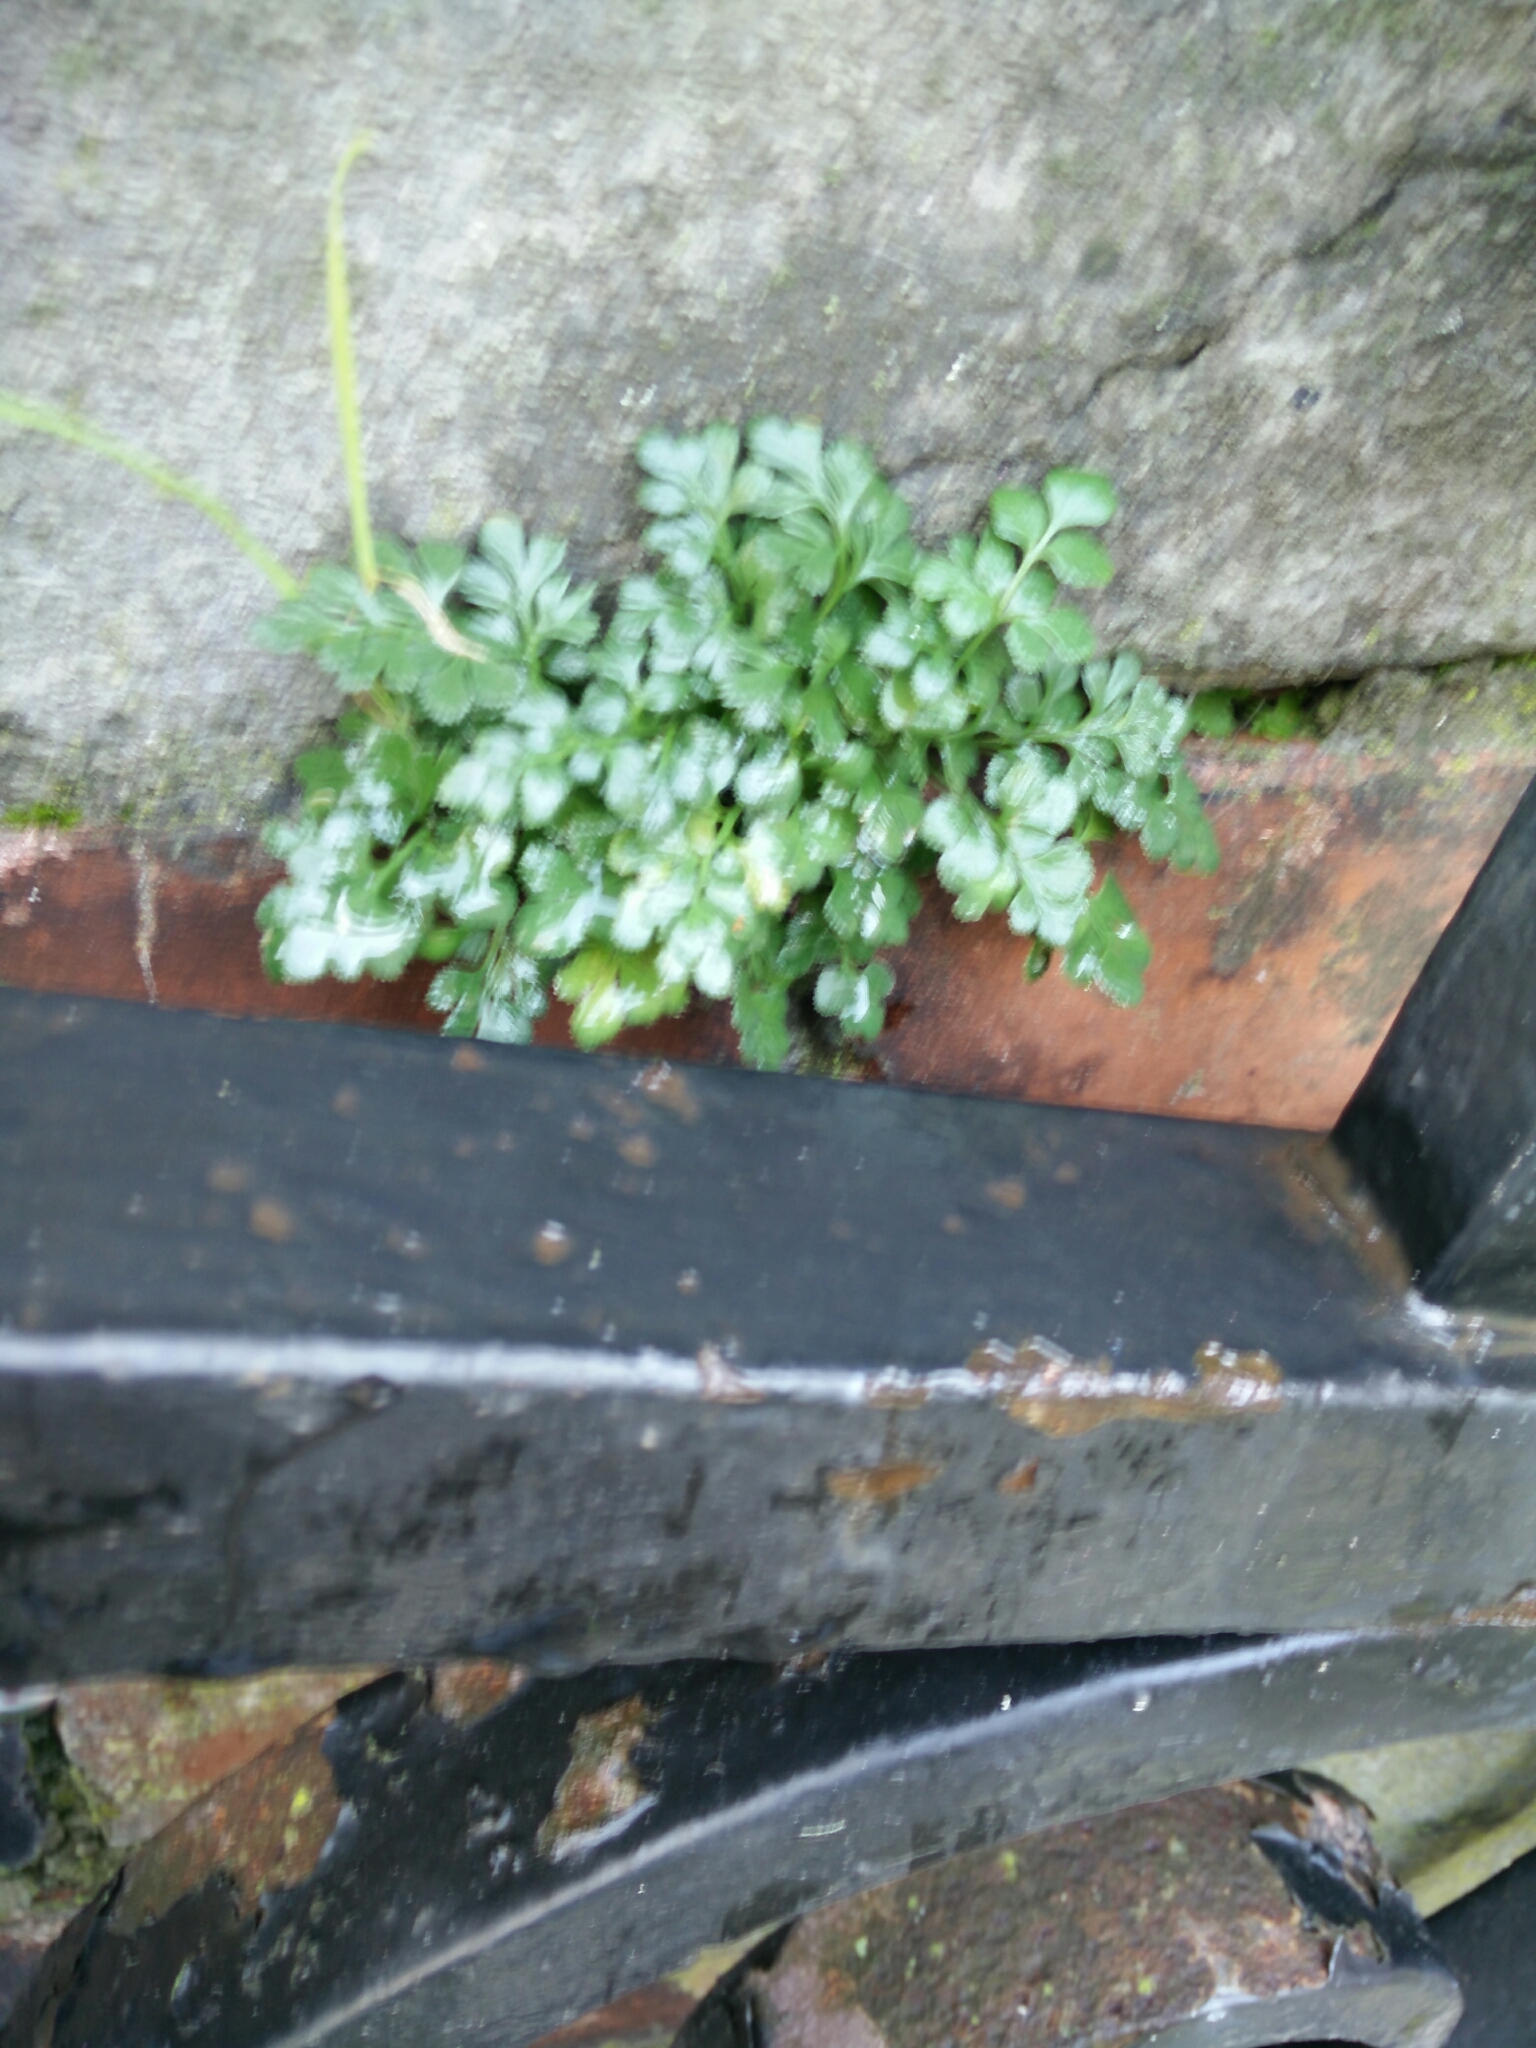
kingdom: Plantae
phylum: Tracheophyta
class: Polypodiopsida
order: Polypodiales
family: Aspleniaceae
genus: Asplenium
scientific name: Asplenium ruta-muraria
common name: Wall-rue
